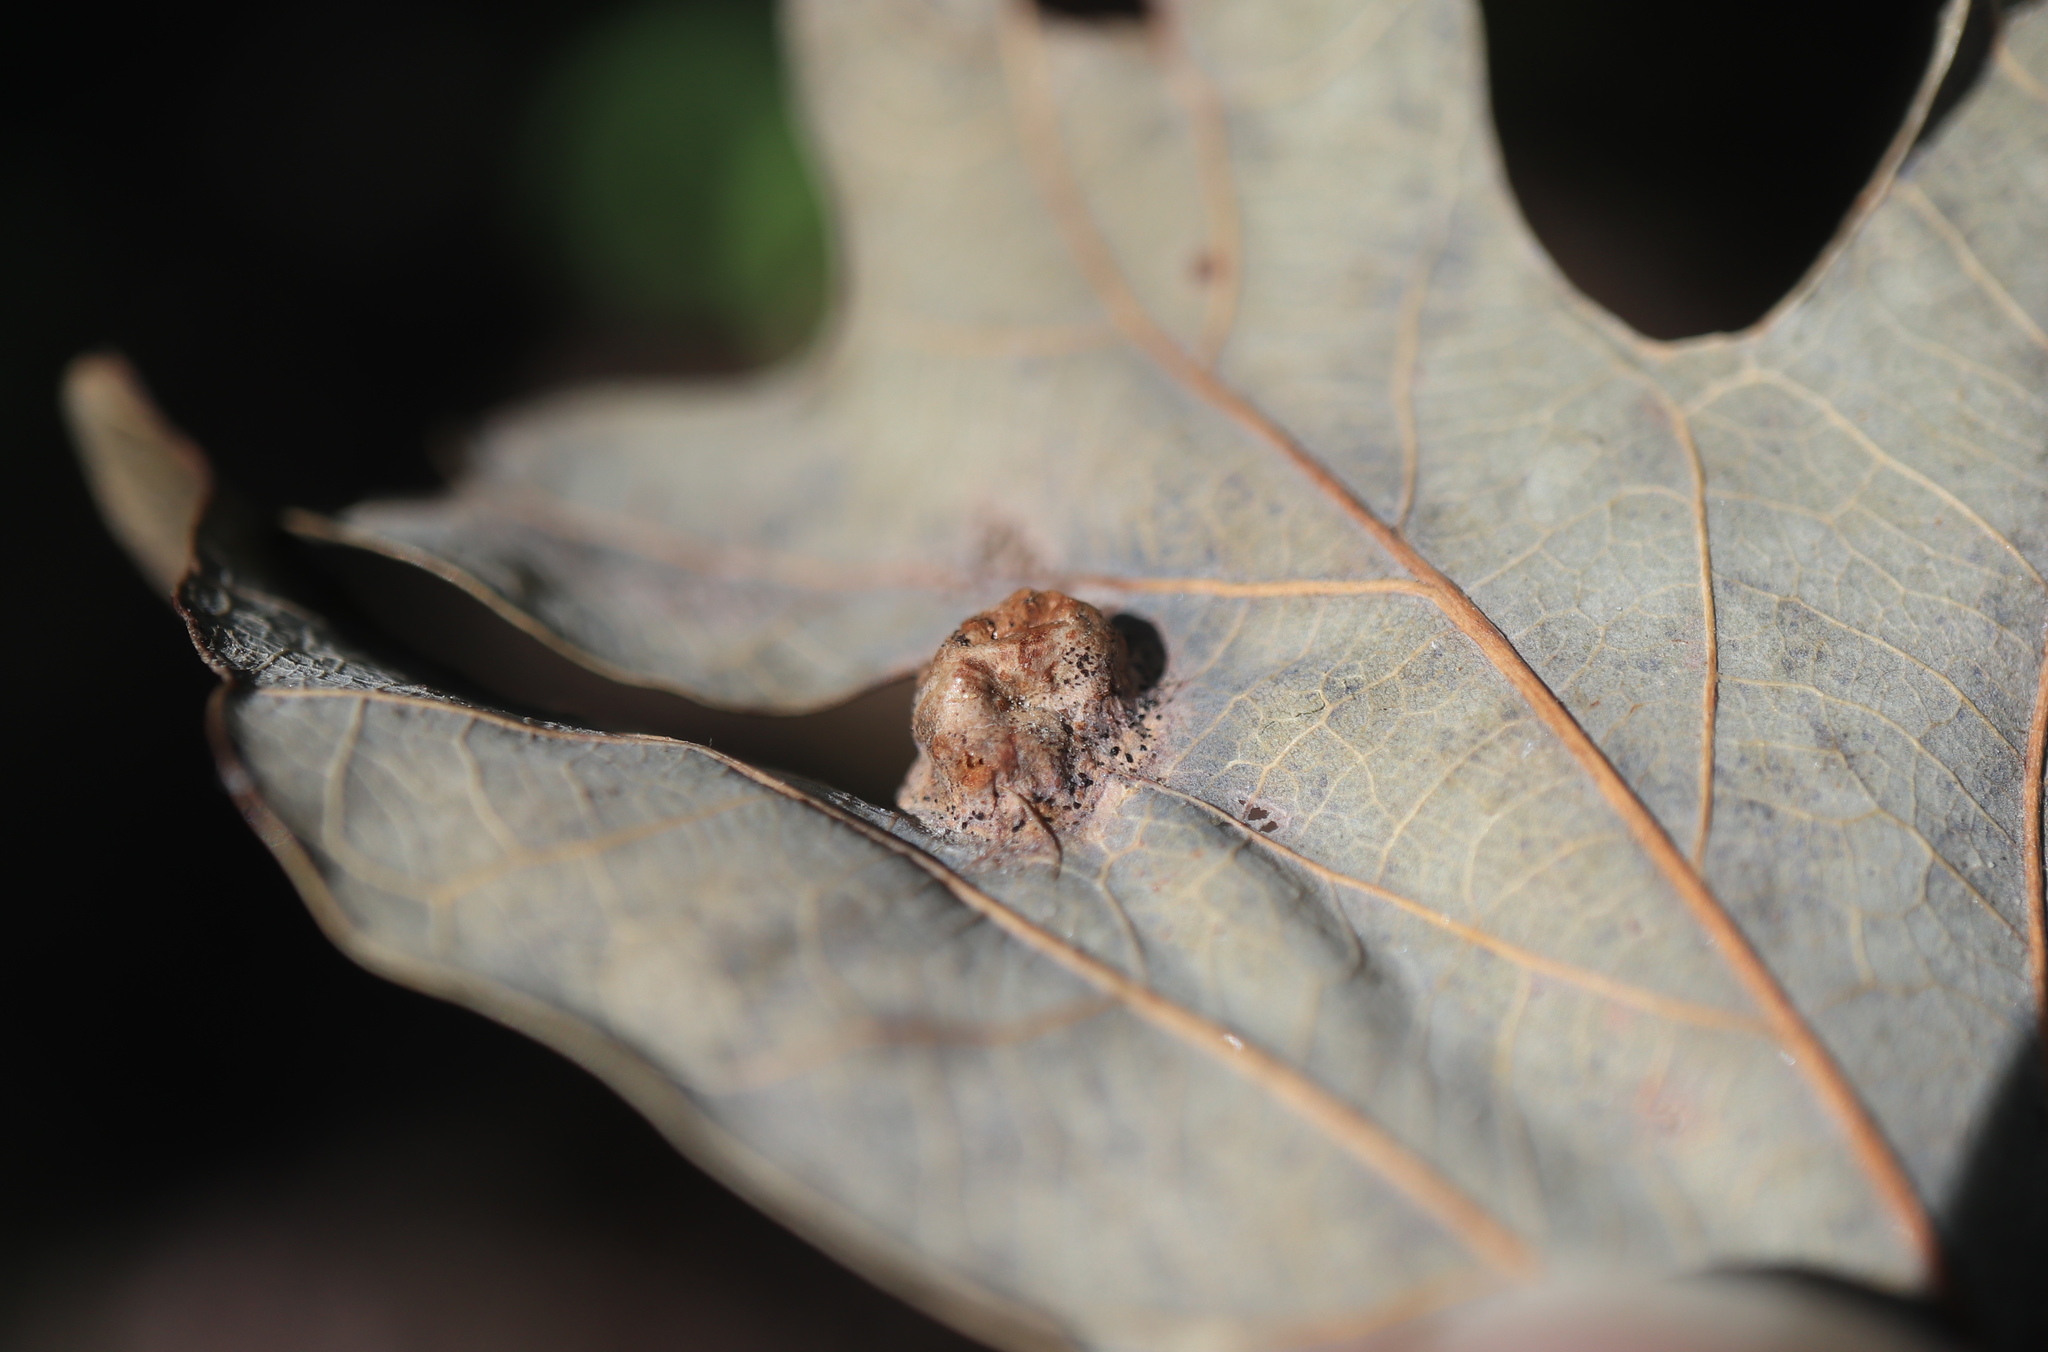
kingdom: Animalia
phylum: Arthropoda
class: Insecta
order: Hymenoptera
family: Cynipidae
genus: Callirhytis
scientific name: Callirhytis
